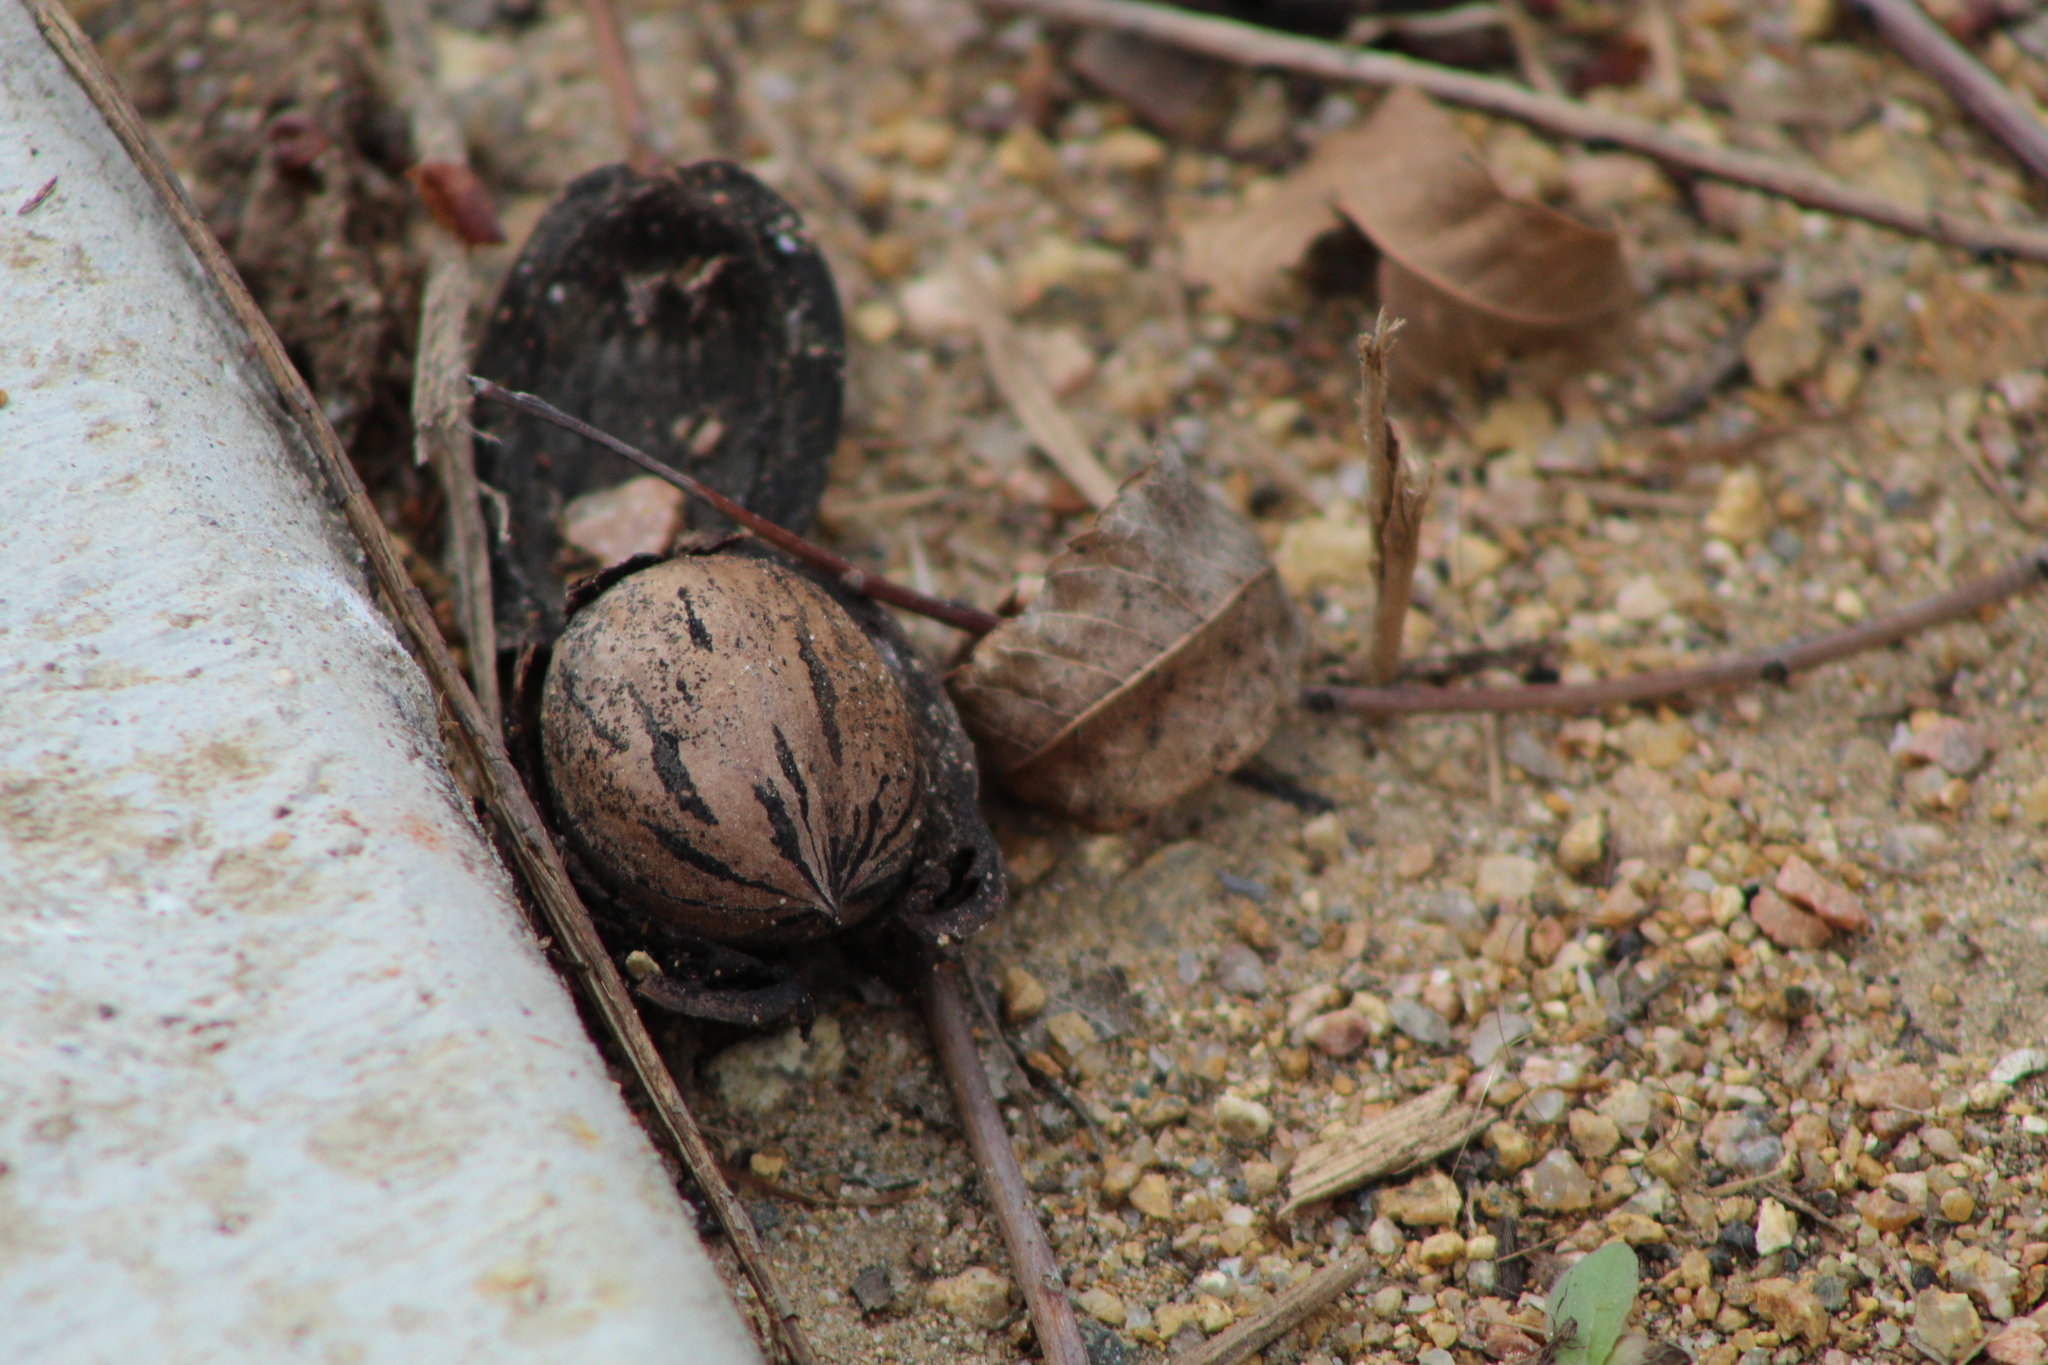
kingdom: Plantae
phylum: Tracheophyta
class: Magnoliopsida
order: Fagales
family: Juglandaceae
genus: Carya
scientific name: Carya illinoinensis
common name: Pecan
